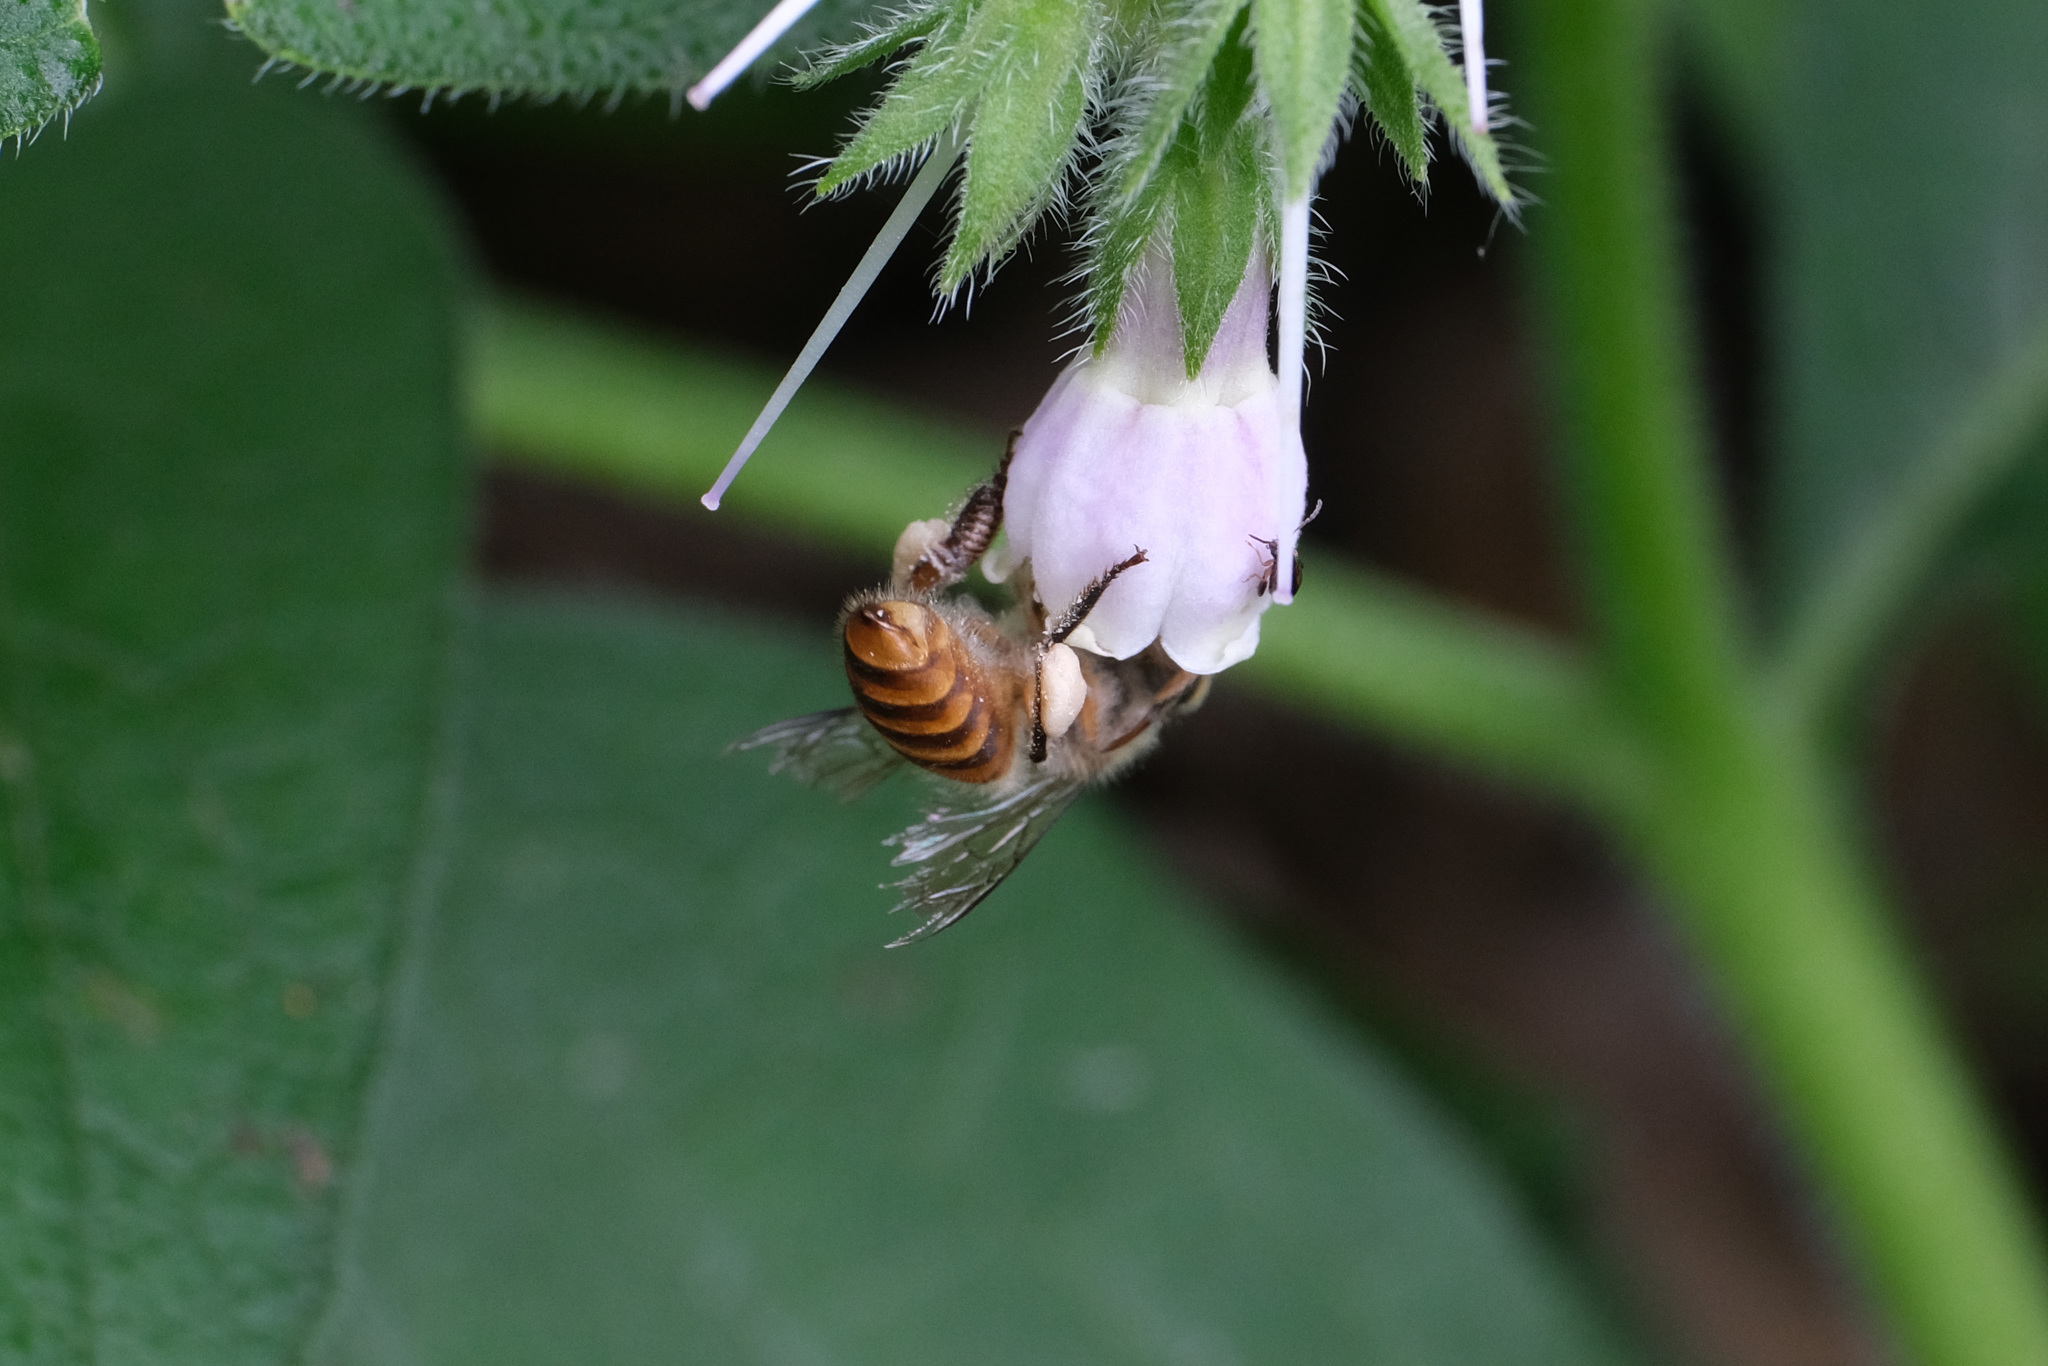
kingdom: Animalia
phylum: Arthropoda
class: Insecta
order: Hymenoptera
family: Apidae
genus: Apis
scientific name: Apis cerana
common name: Honey bee
